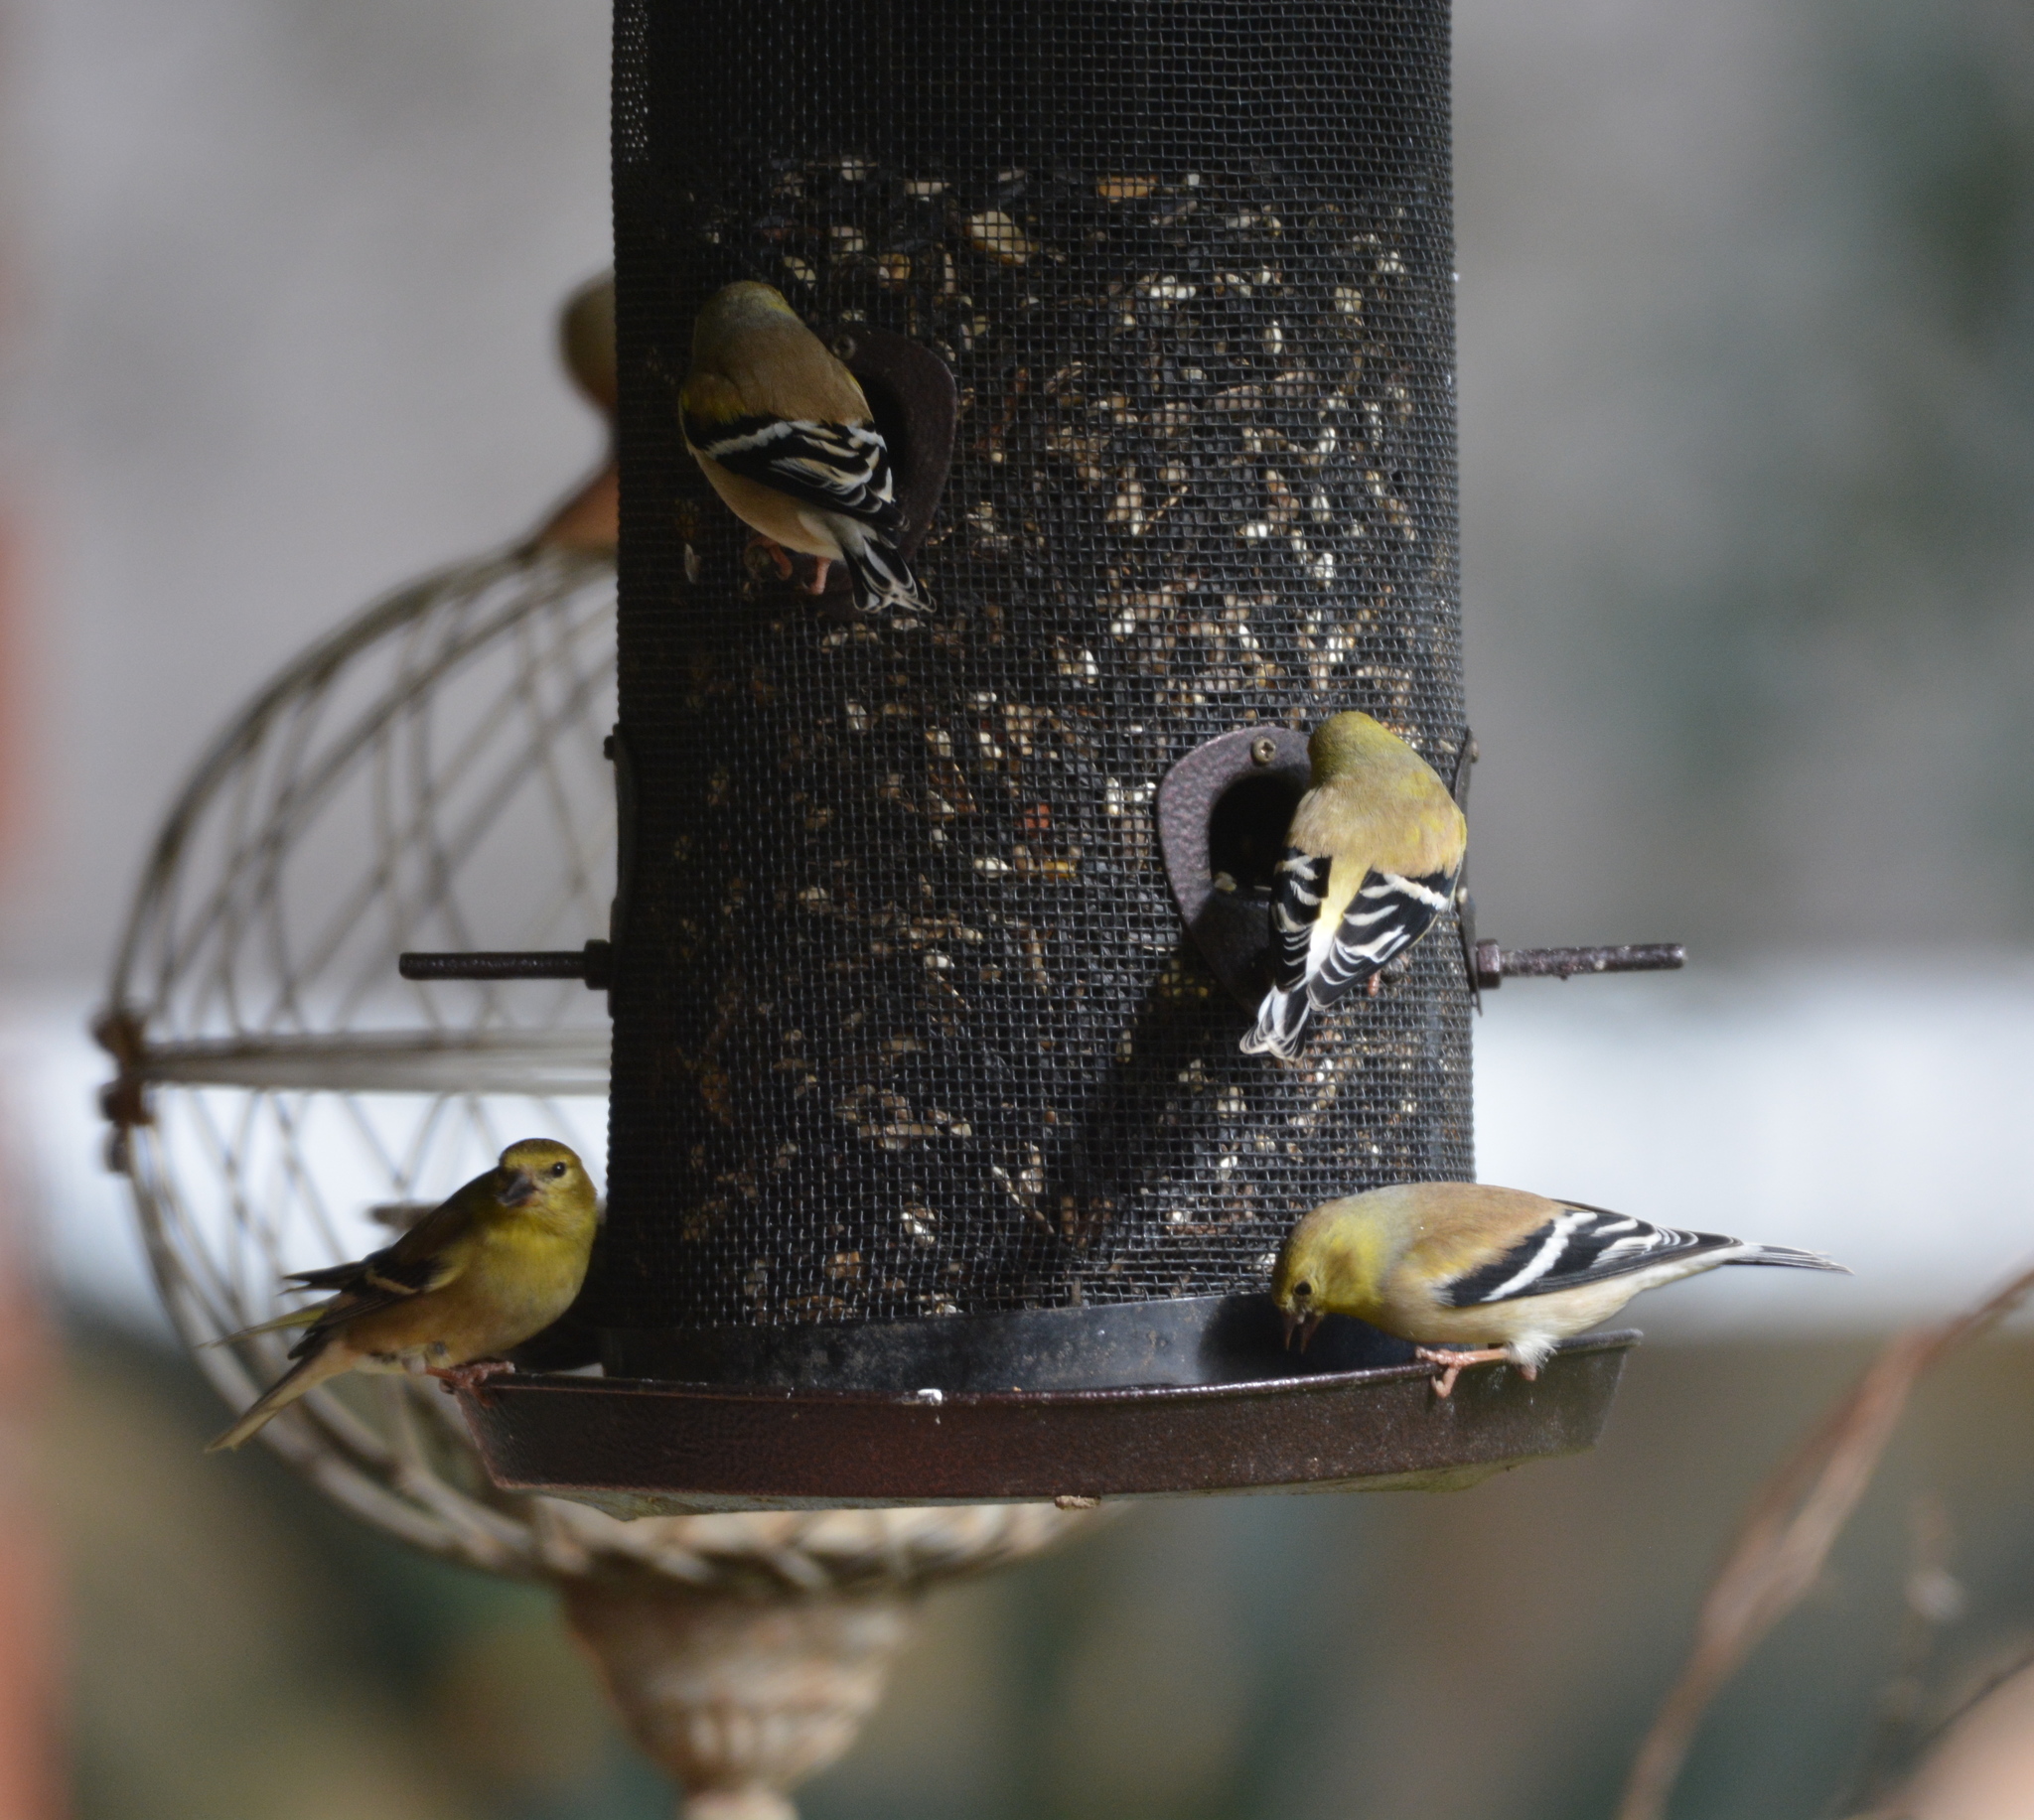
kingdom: Animalia
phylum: Chordata
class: Aves
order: Passeriformes
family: Fringillidae
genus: Spinus
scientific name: Spinus tristis
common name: American goldfinch
